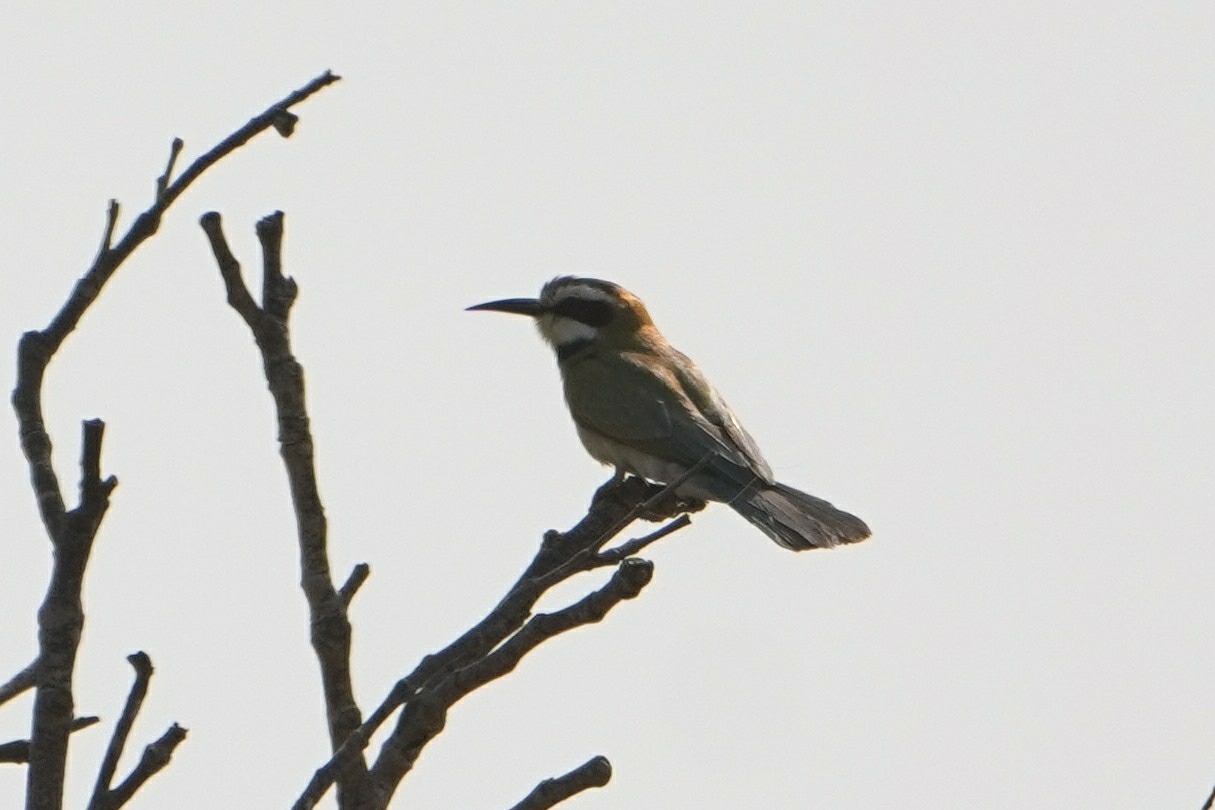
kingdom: Animalia
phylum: Chordata
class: Aves
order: Coraciiformes
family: Meropidae
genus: Merops
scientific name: Merops albicollis
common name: White-throated bee-eater
